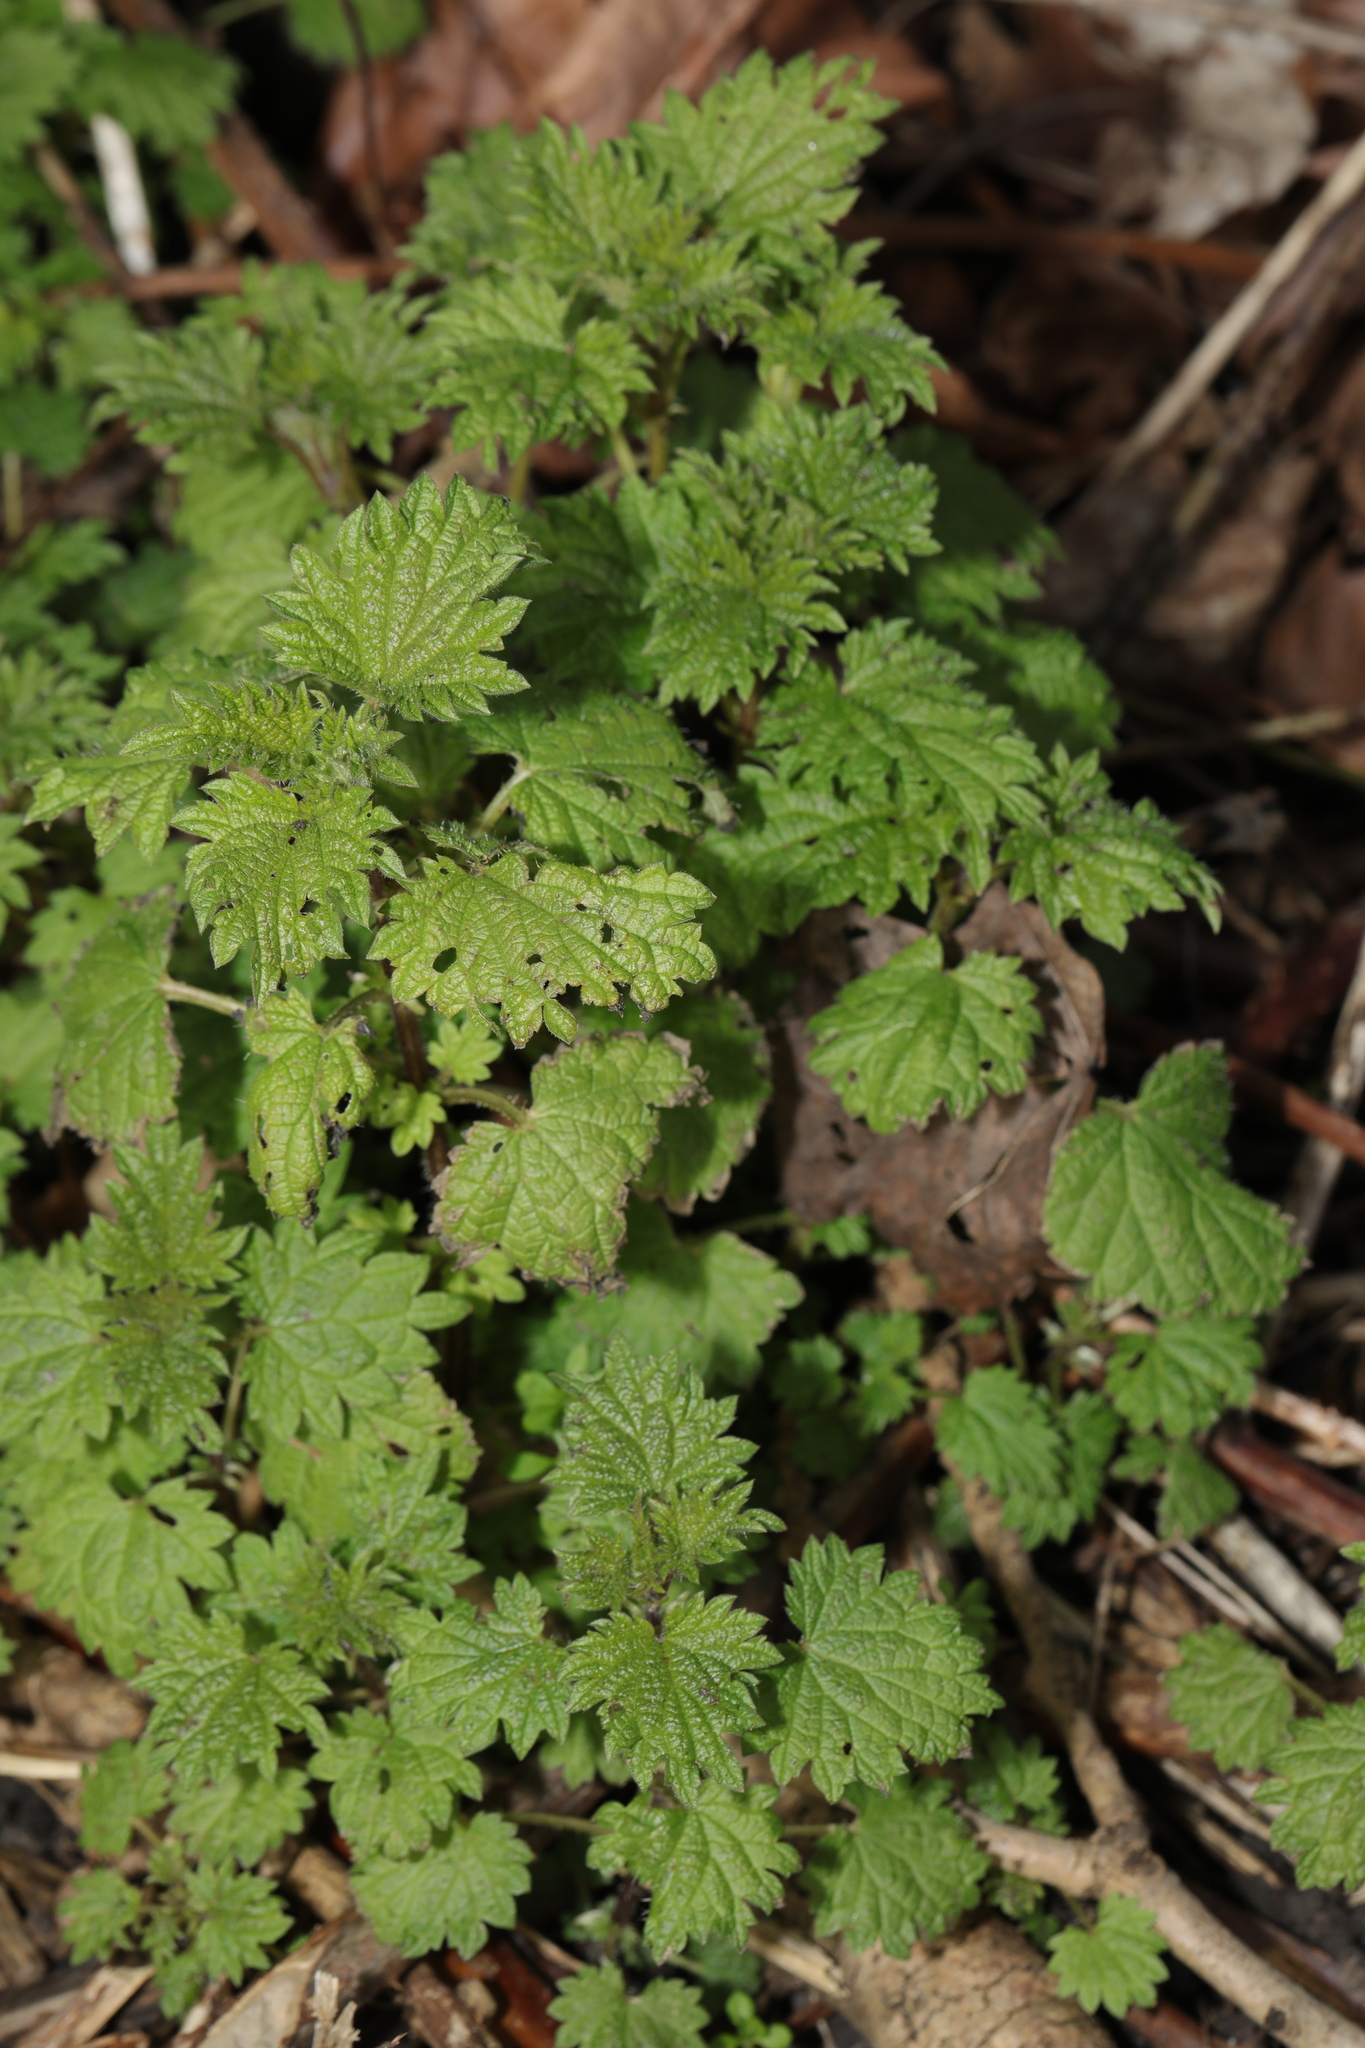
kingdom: Plantae
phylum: Tracheophyta
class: Magnoliopsida
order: Rosales
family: Urticaceae
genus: Urtica
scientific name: Urtica dioica
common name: Common nettle
